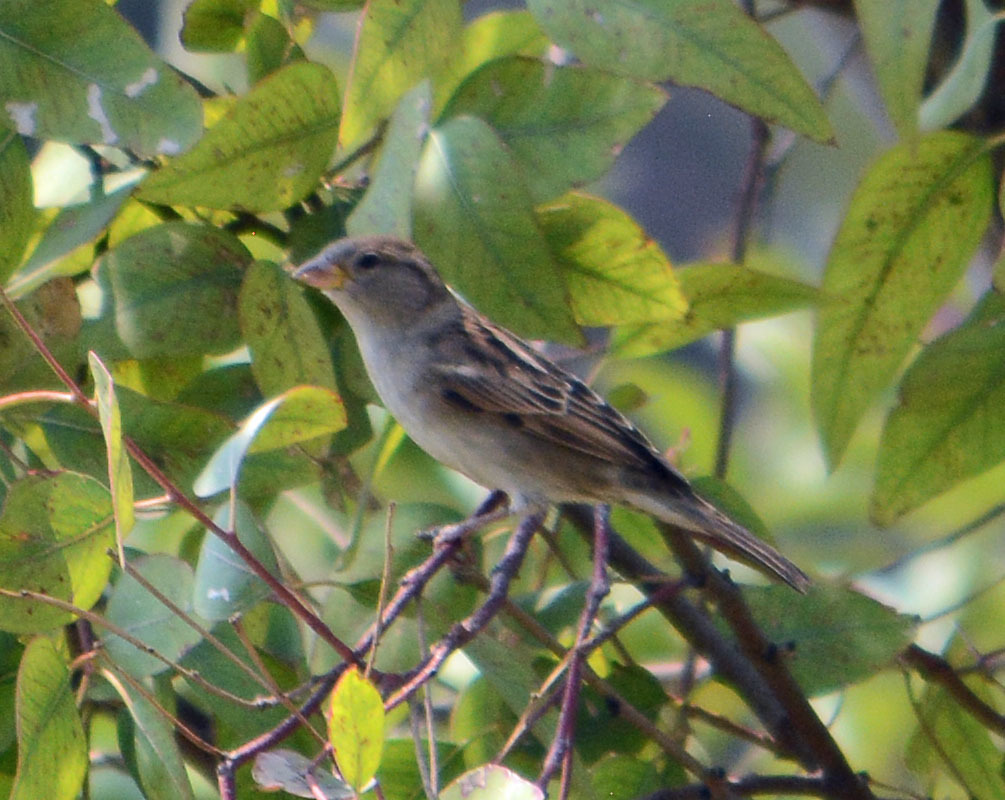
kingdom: Animalia
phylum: Chordata
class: Aves
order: Passeriformes
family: Passeridae
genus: Passer
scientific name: Passer domesticus
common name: House sparrow
